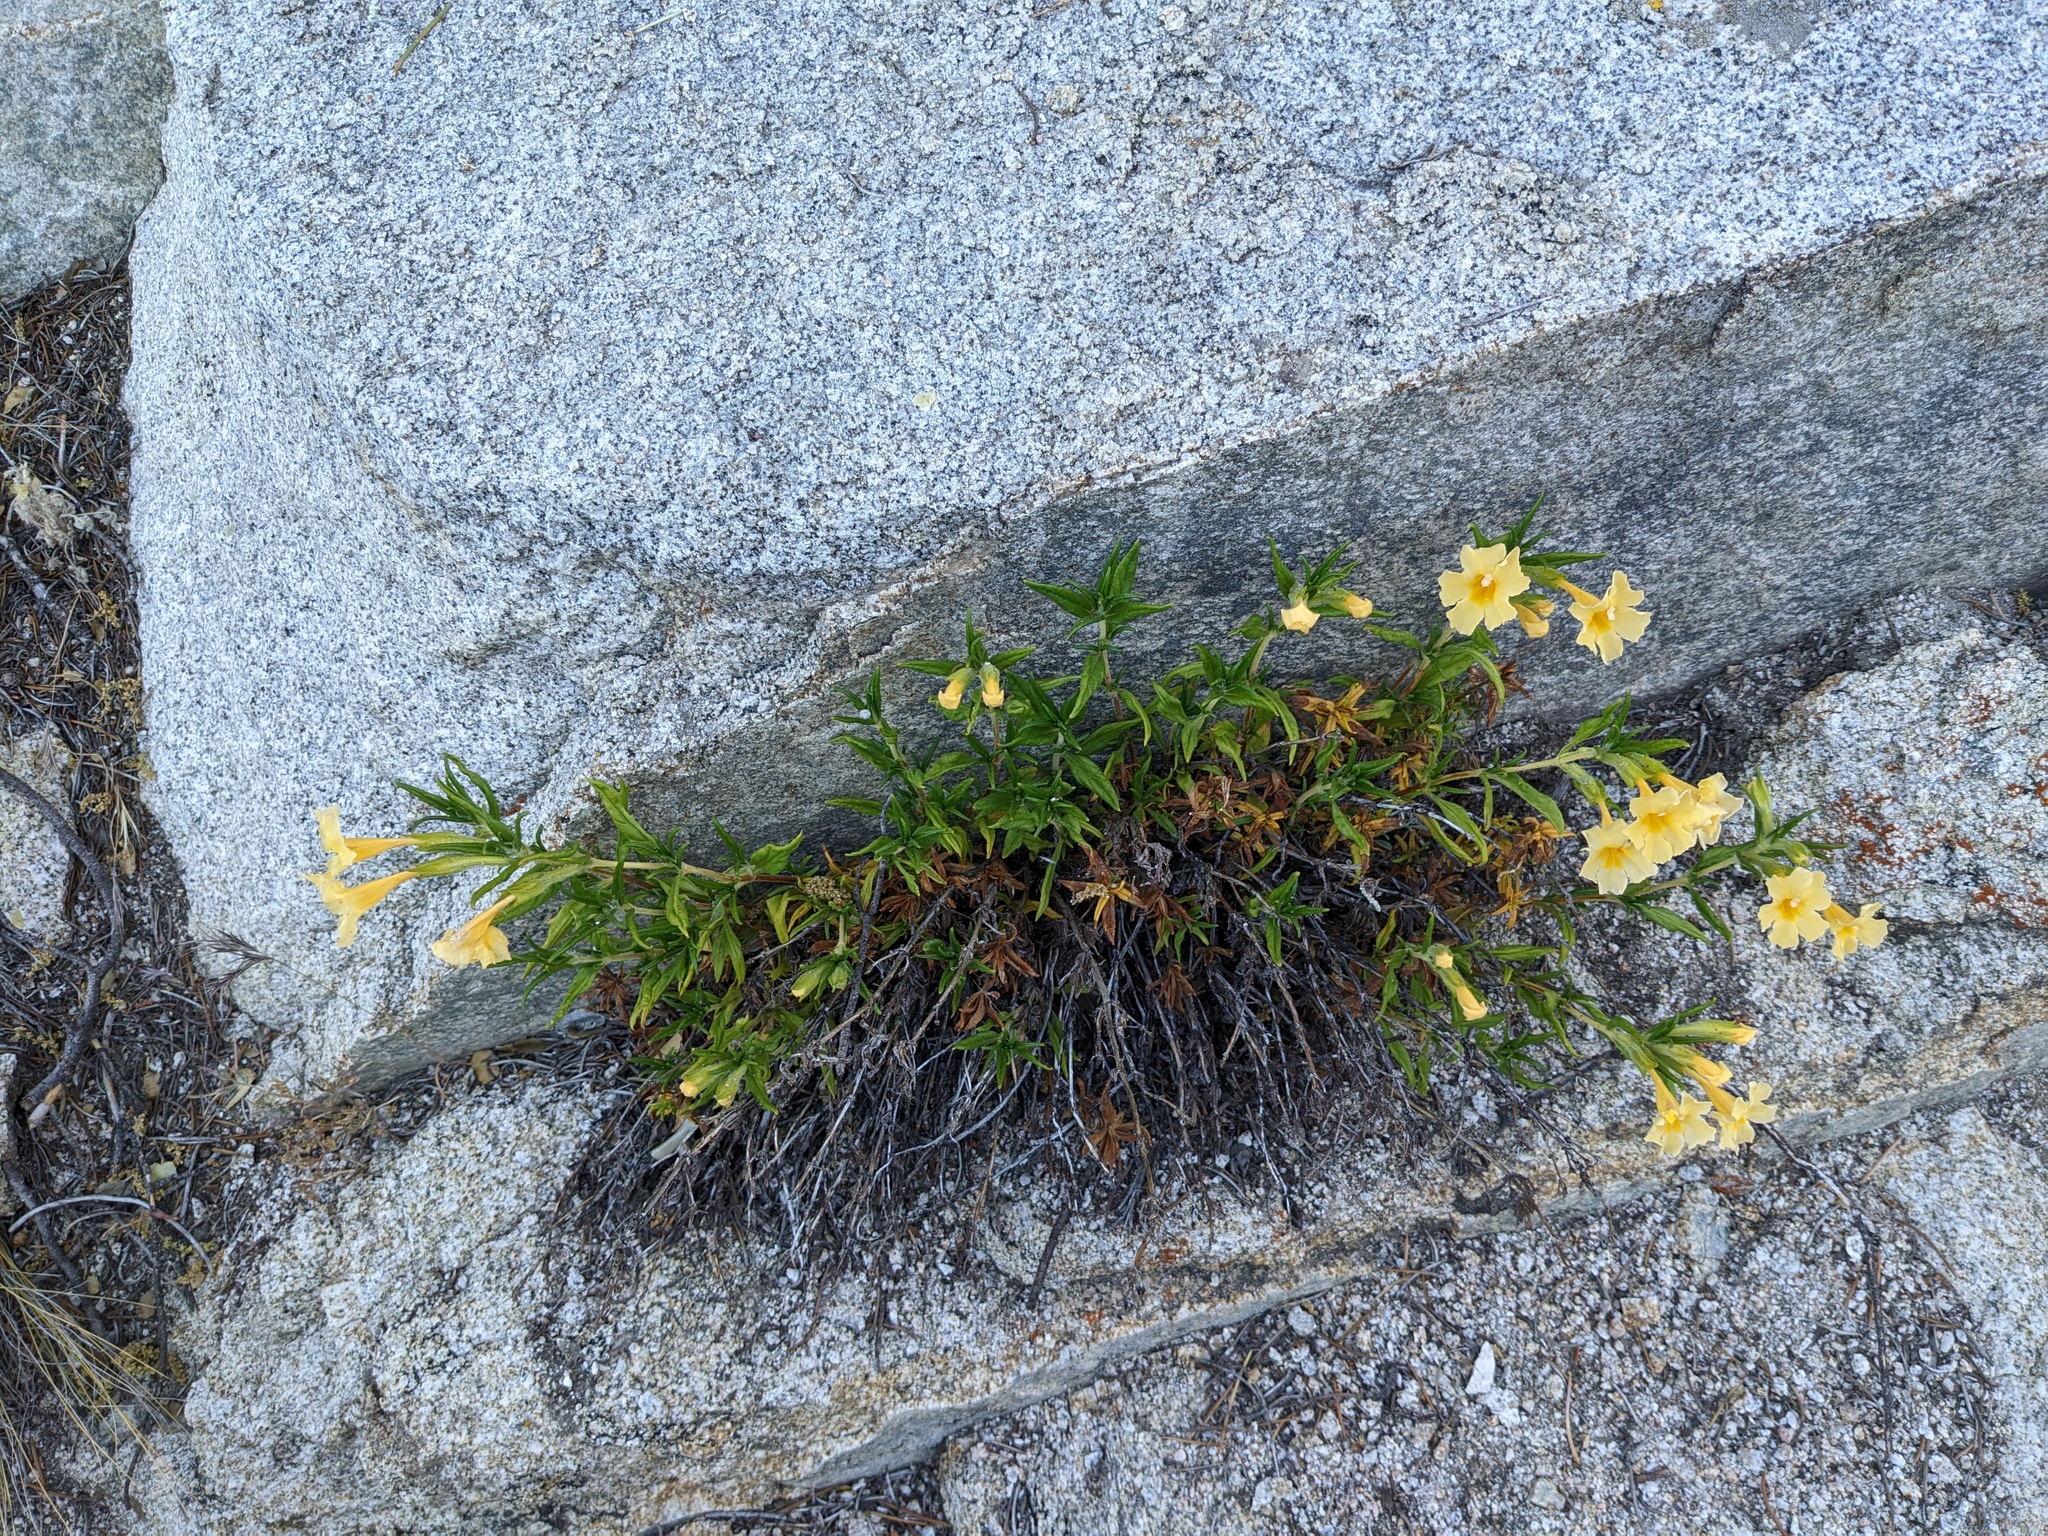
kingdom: Plantae
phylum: Tracheophyta
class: Magnoliopsida
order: Lamiales
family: Phrymaceae
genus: Diplacus
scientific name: Diplacus calycinus
